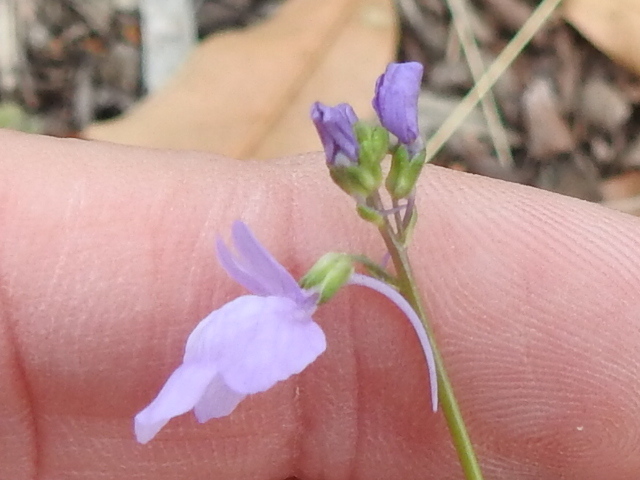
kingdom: Plantae
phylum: Tracheophyta
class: Magnoliopsida
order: Lamiales
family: Plantaginaceae
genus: Nuttallanthus
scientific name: Nuttallanthus texanus
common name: Texas toadflax
